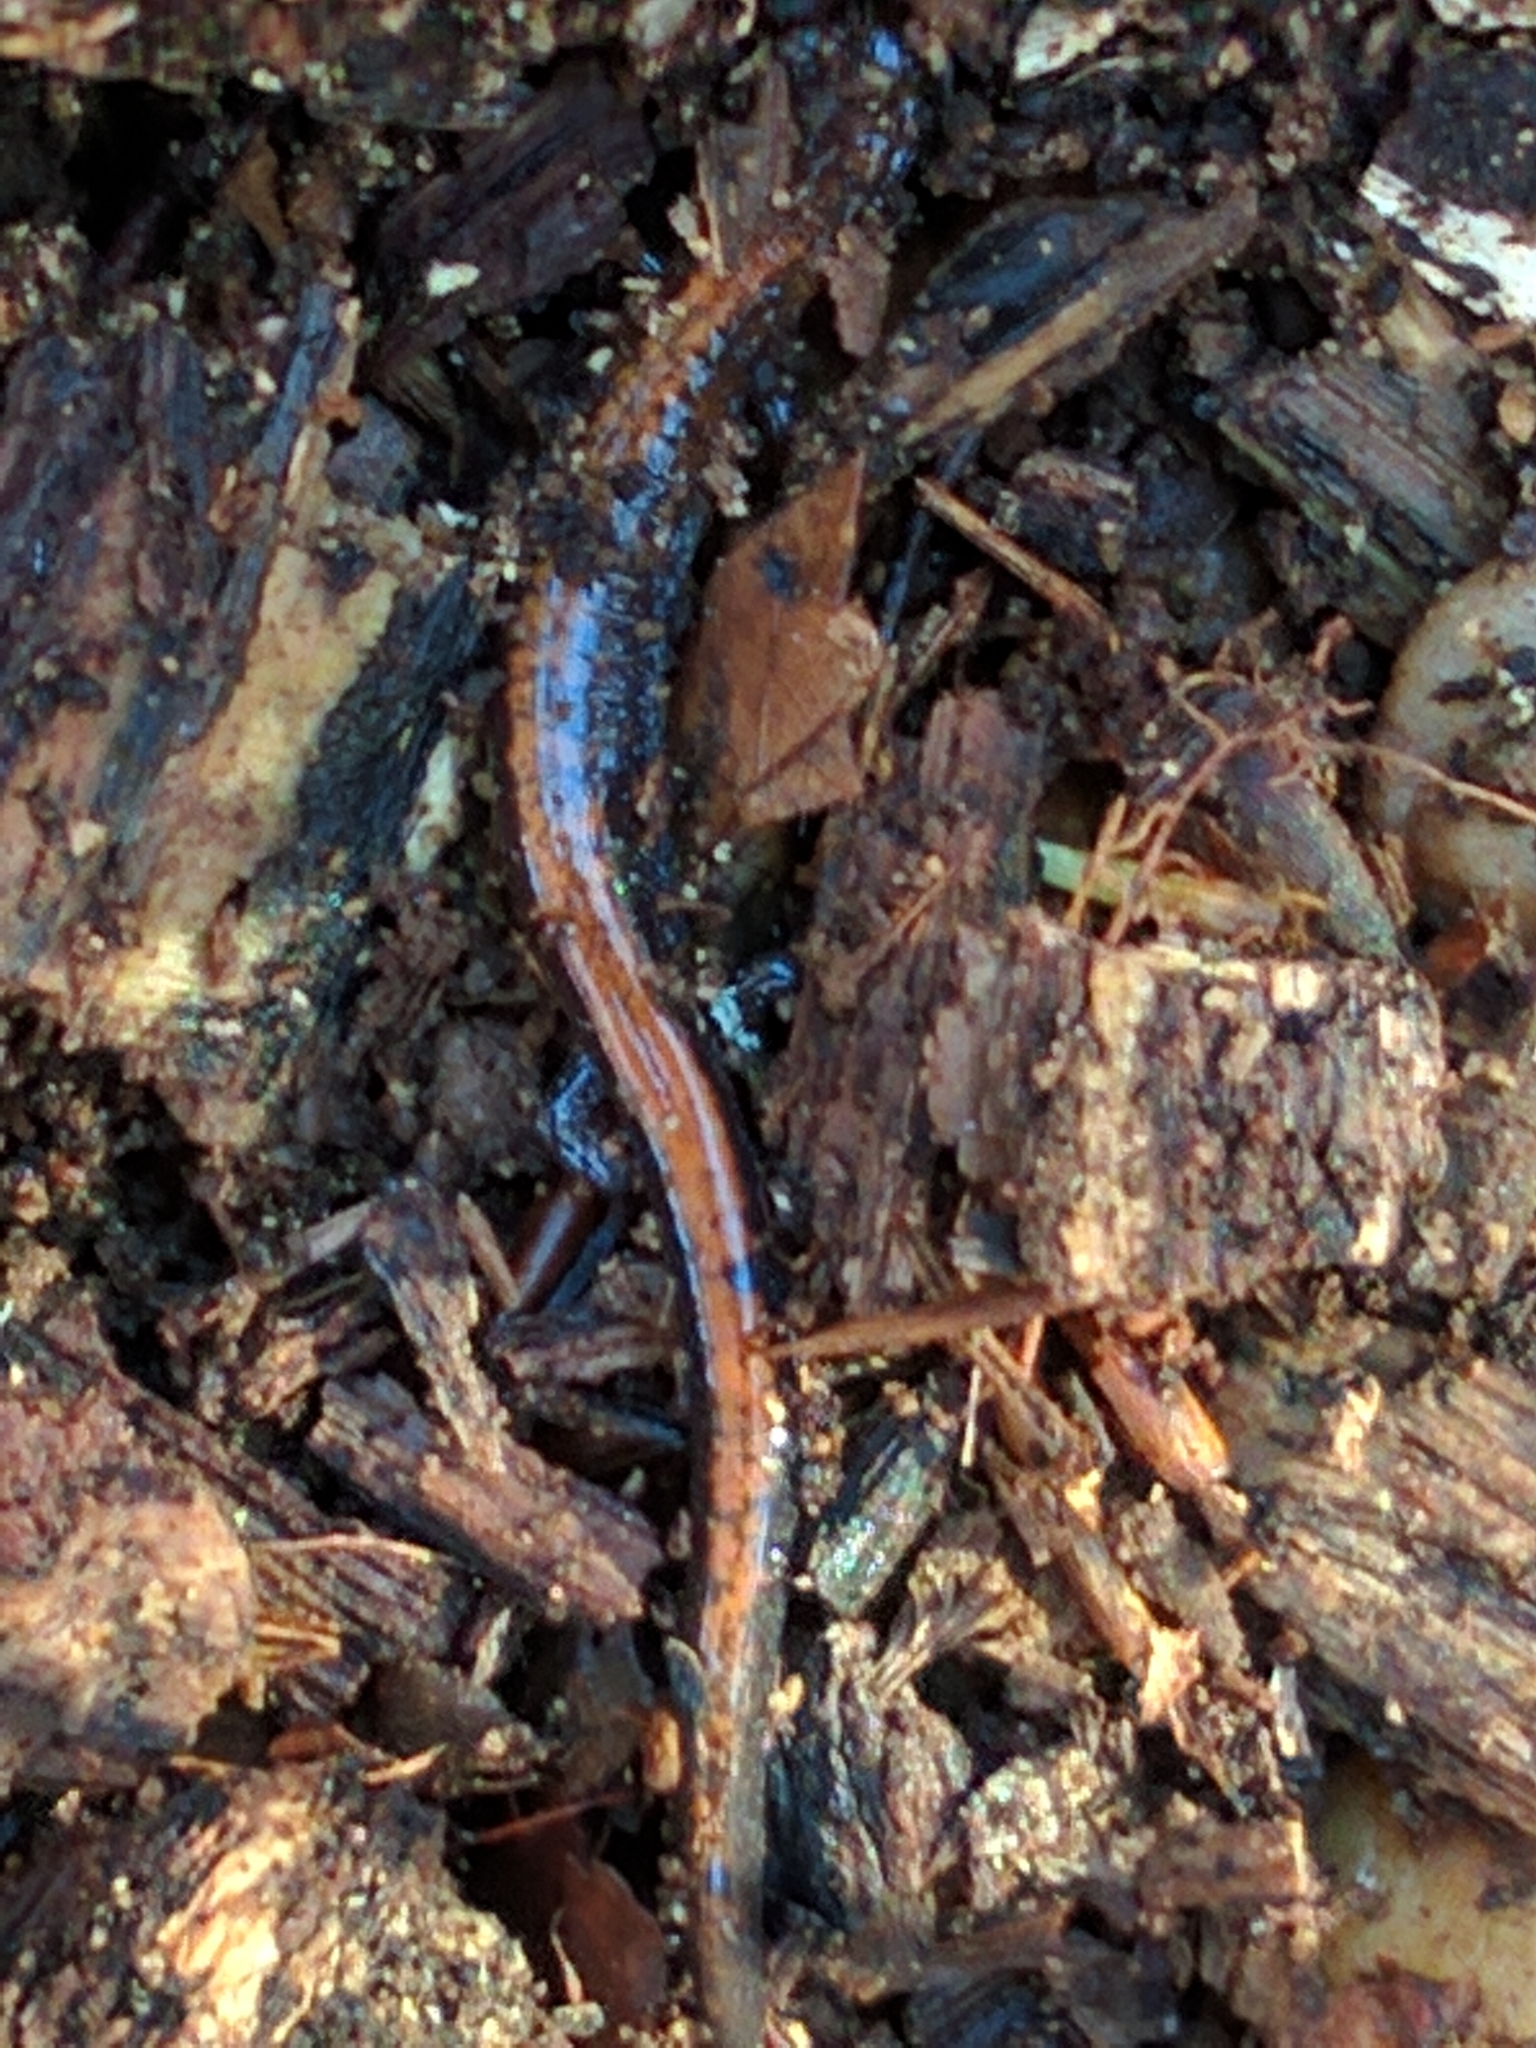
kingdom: Animalia
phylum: Chordata
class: Amphibia
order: Caudata
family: Plethodontidae
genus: Plethodon
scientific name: Plethodon cinereus
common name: Redback salamander
